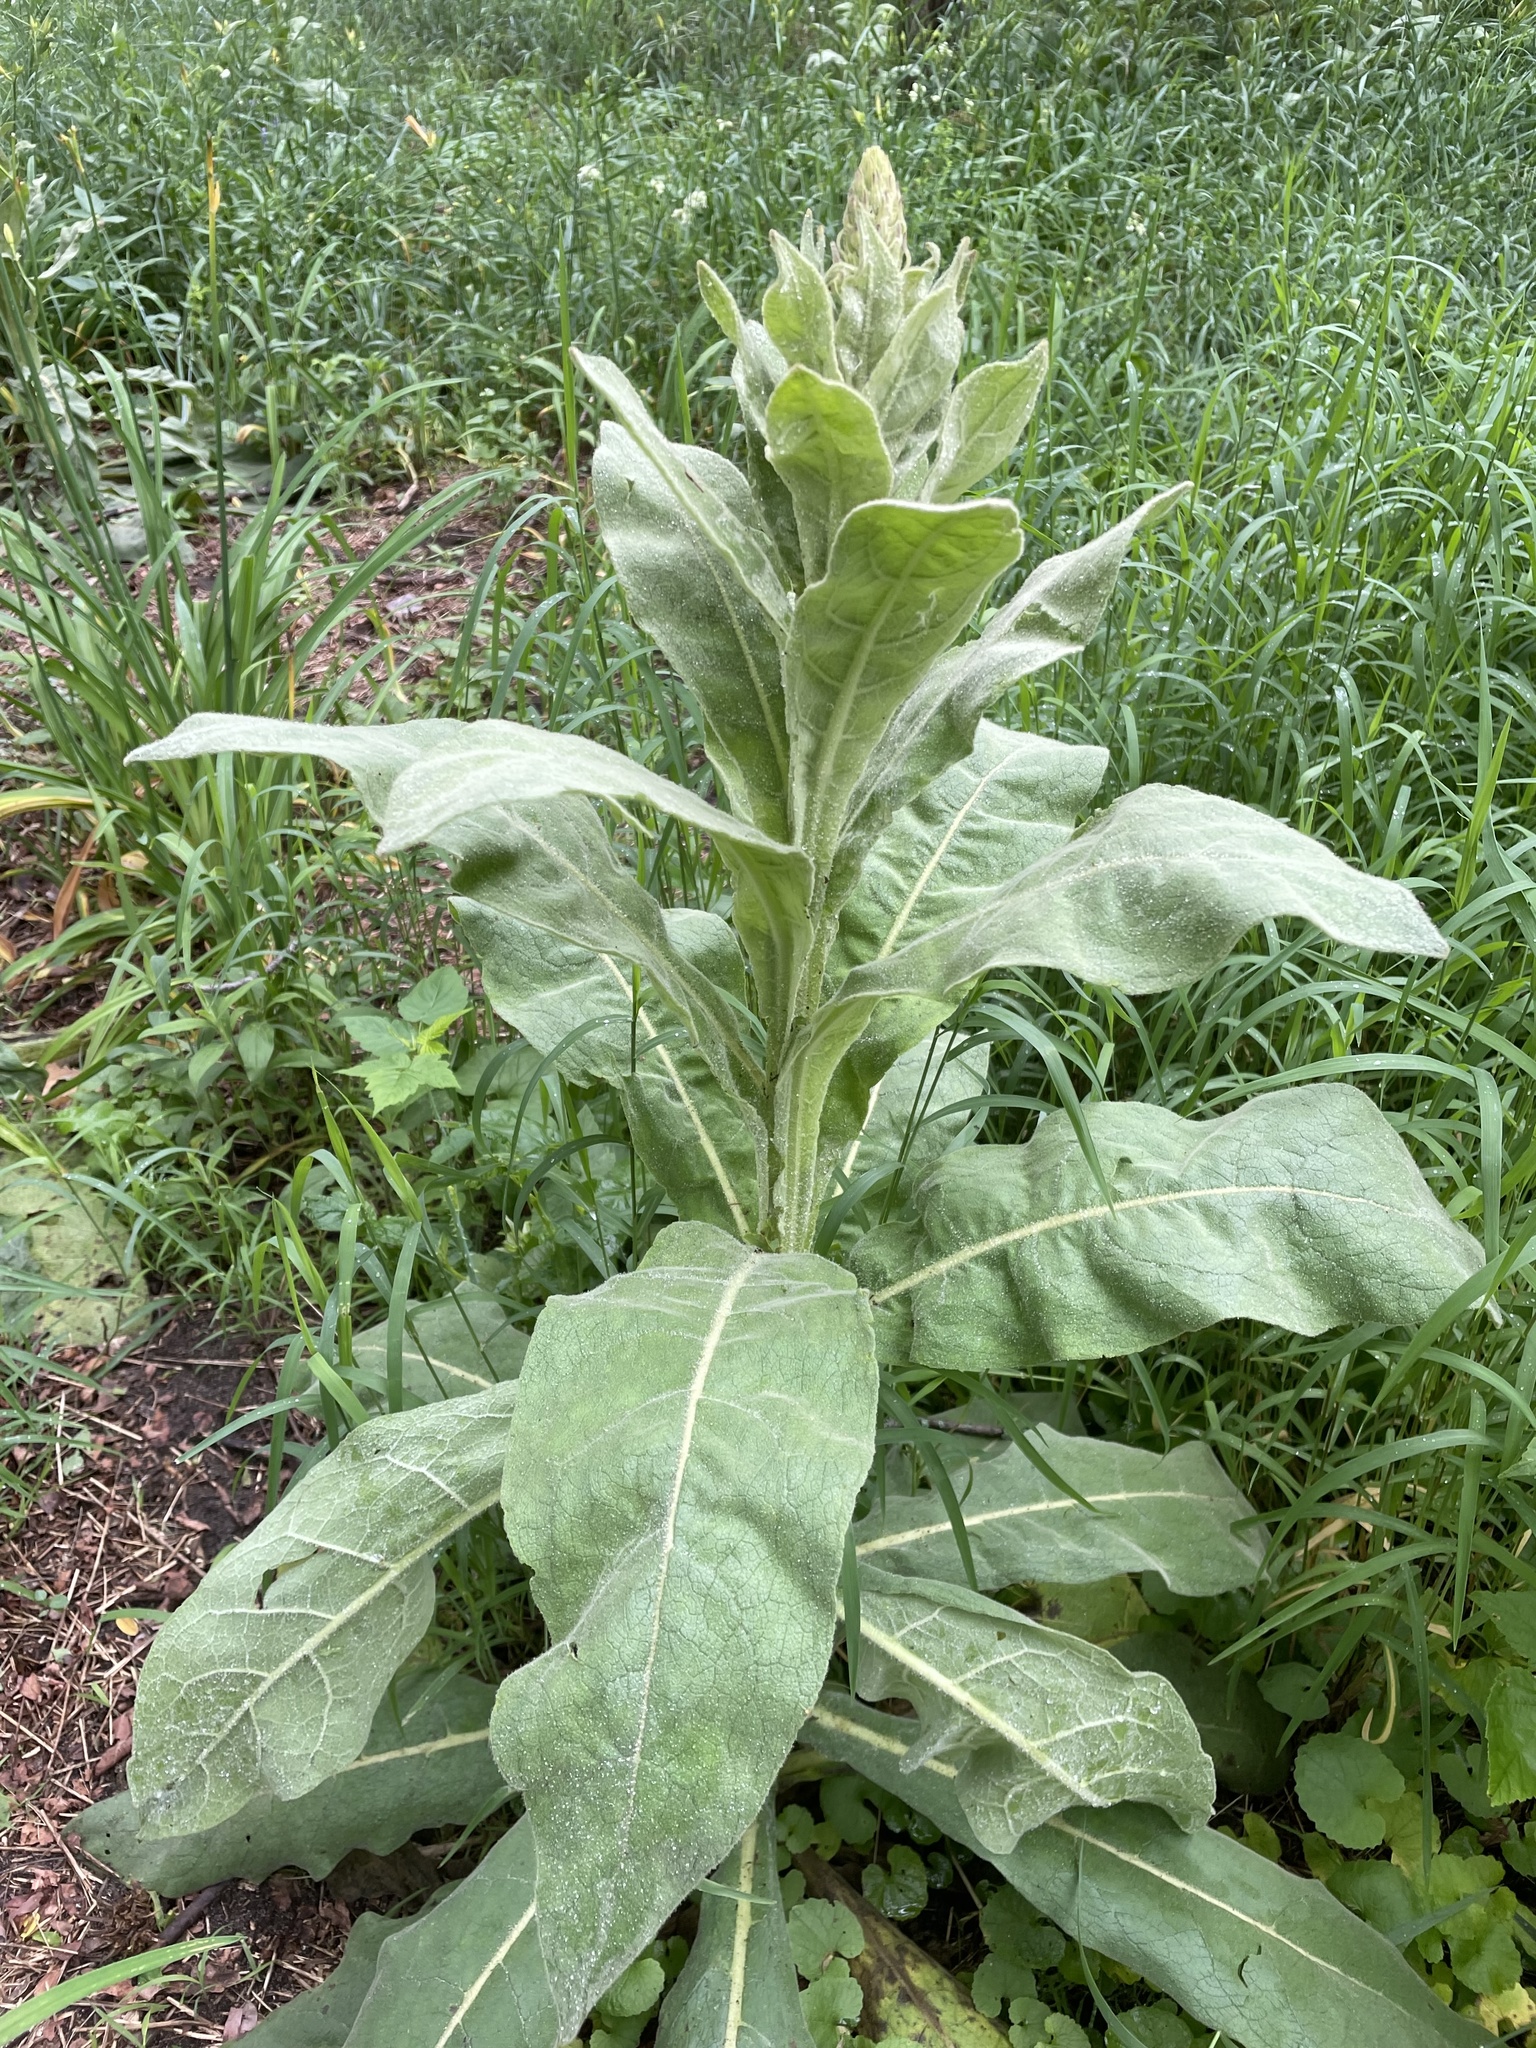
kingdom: Plantae
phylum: Tracheophyta
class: Magnoliopsida
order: Lamiales
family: Scrophulariaceae
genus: Verbascum
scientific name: Verbascum thapsus
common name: Common mullein
